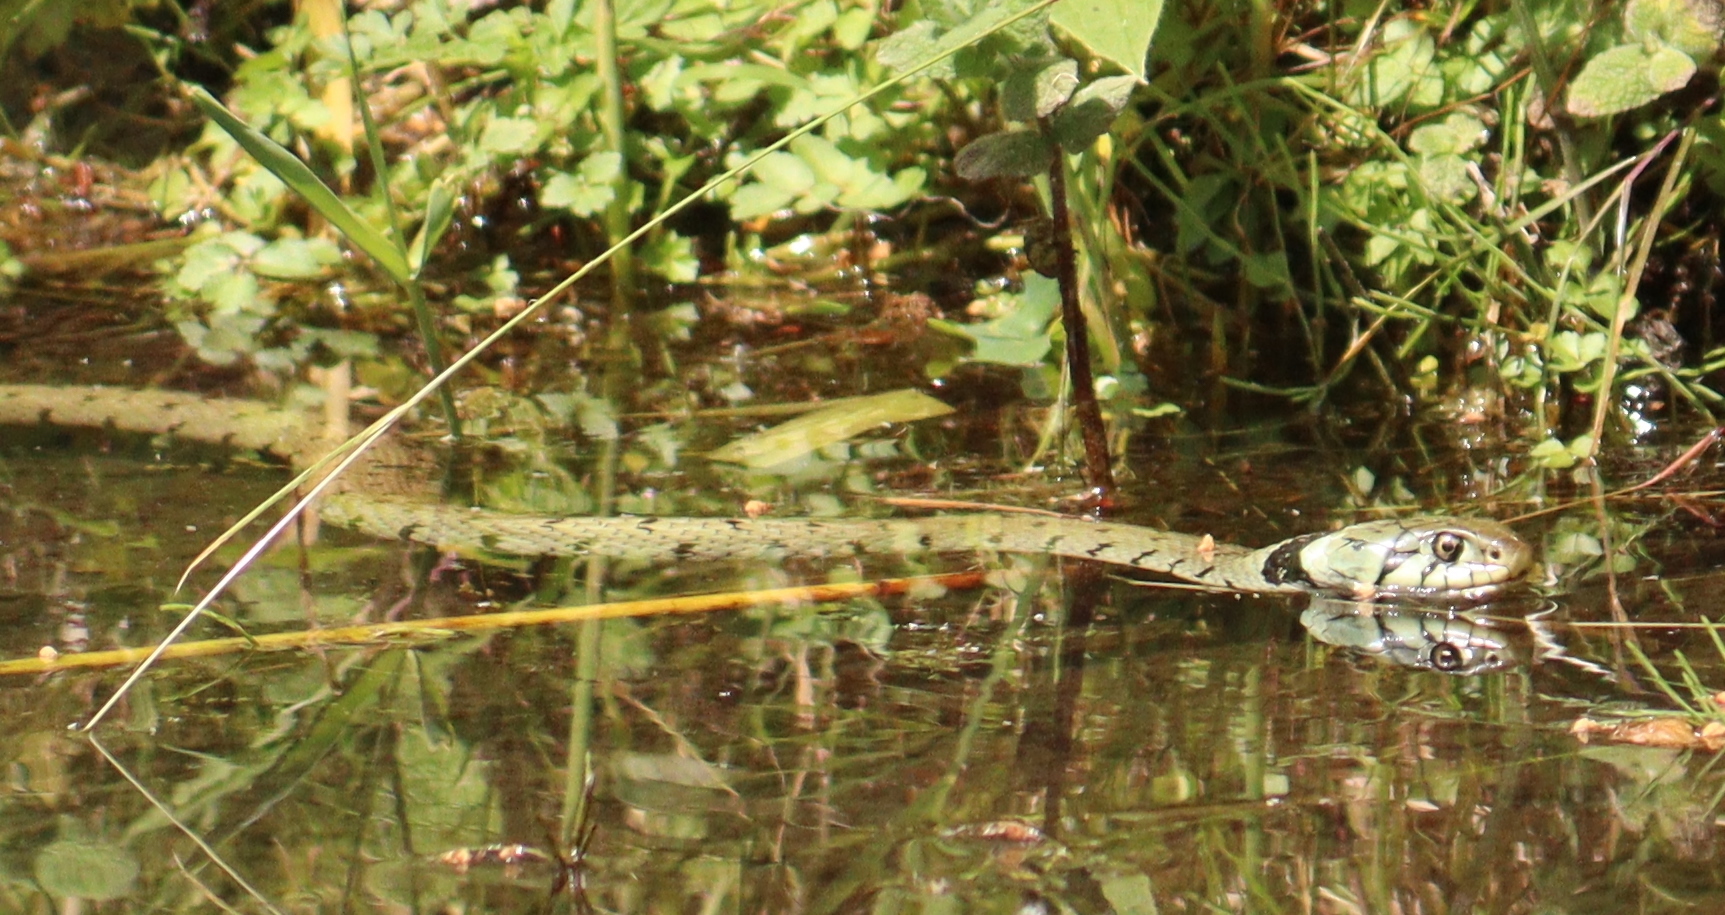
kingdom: Animalia
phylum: Chordata
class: Squamata
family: Colubridae
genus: Natrix
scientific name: Natrix helvetica
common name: Banded grass snake
